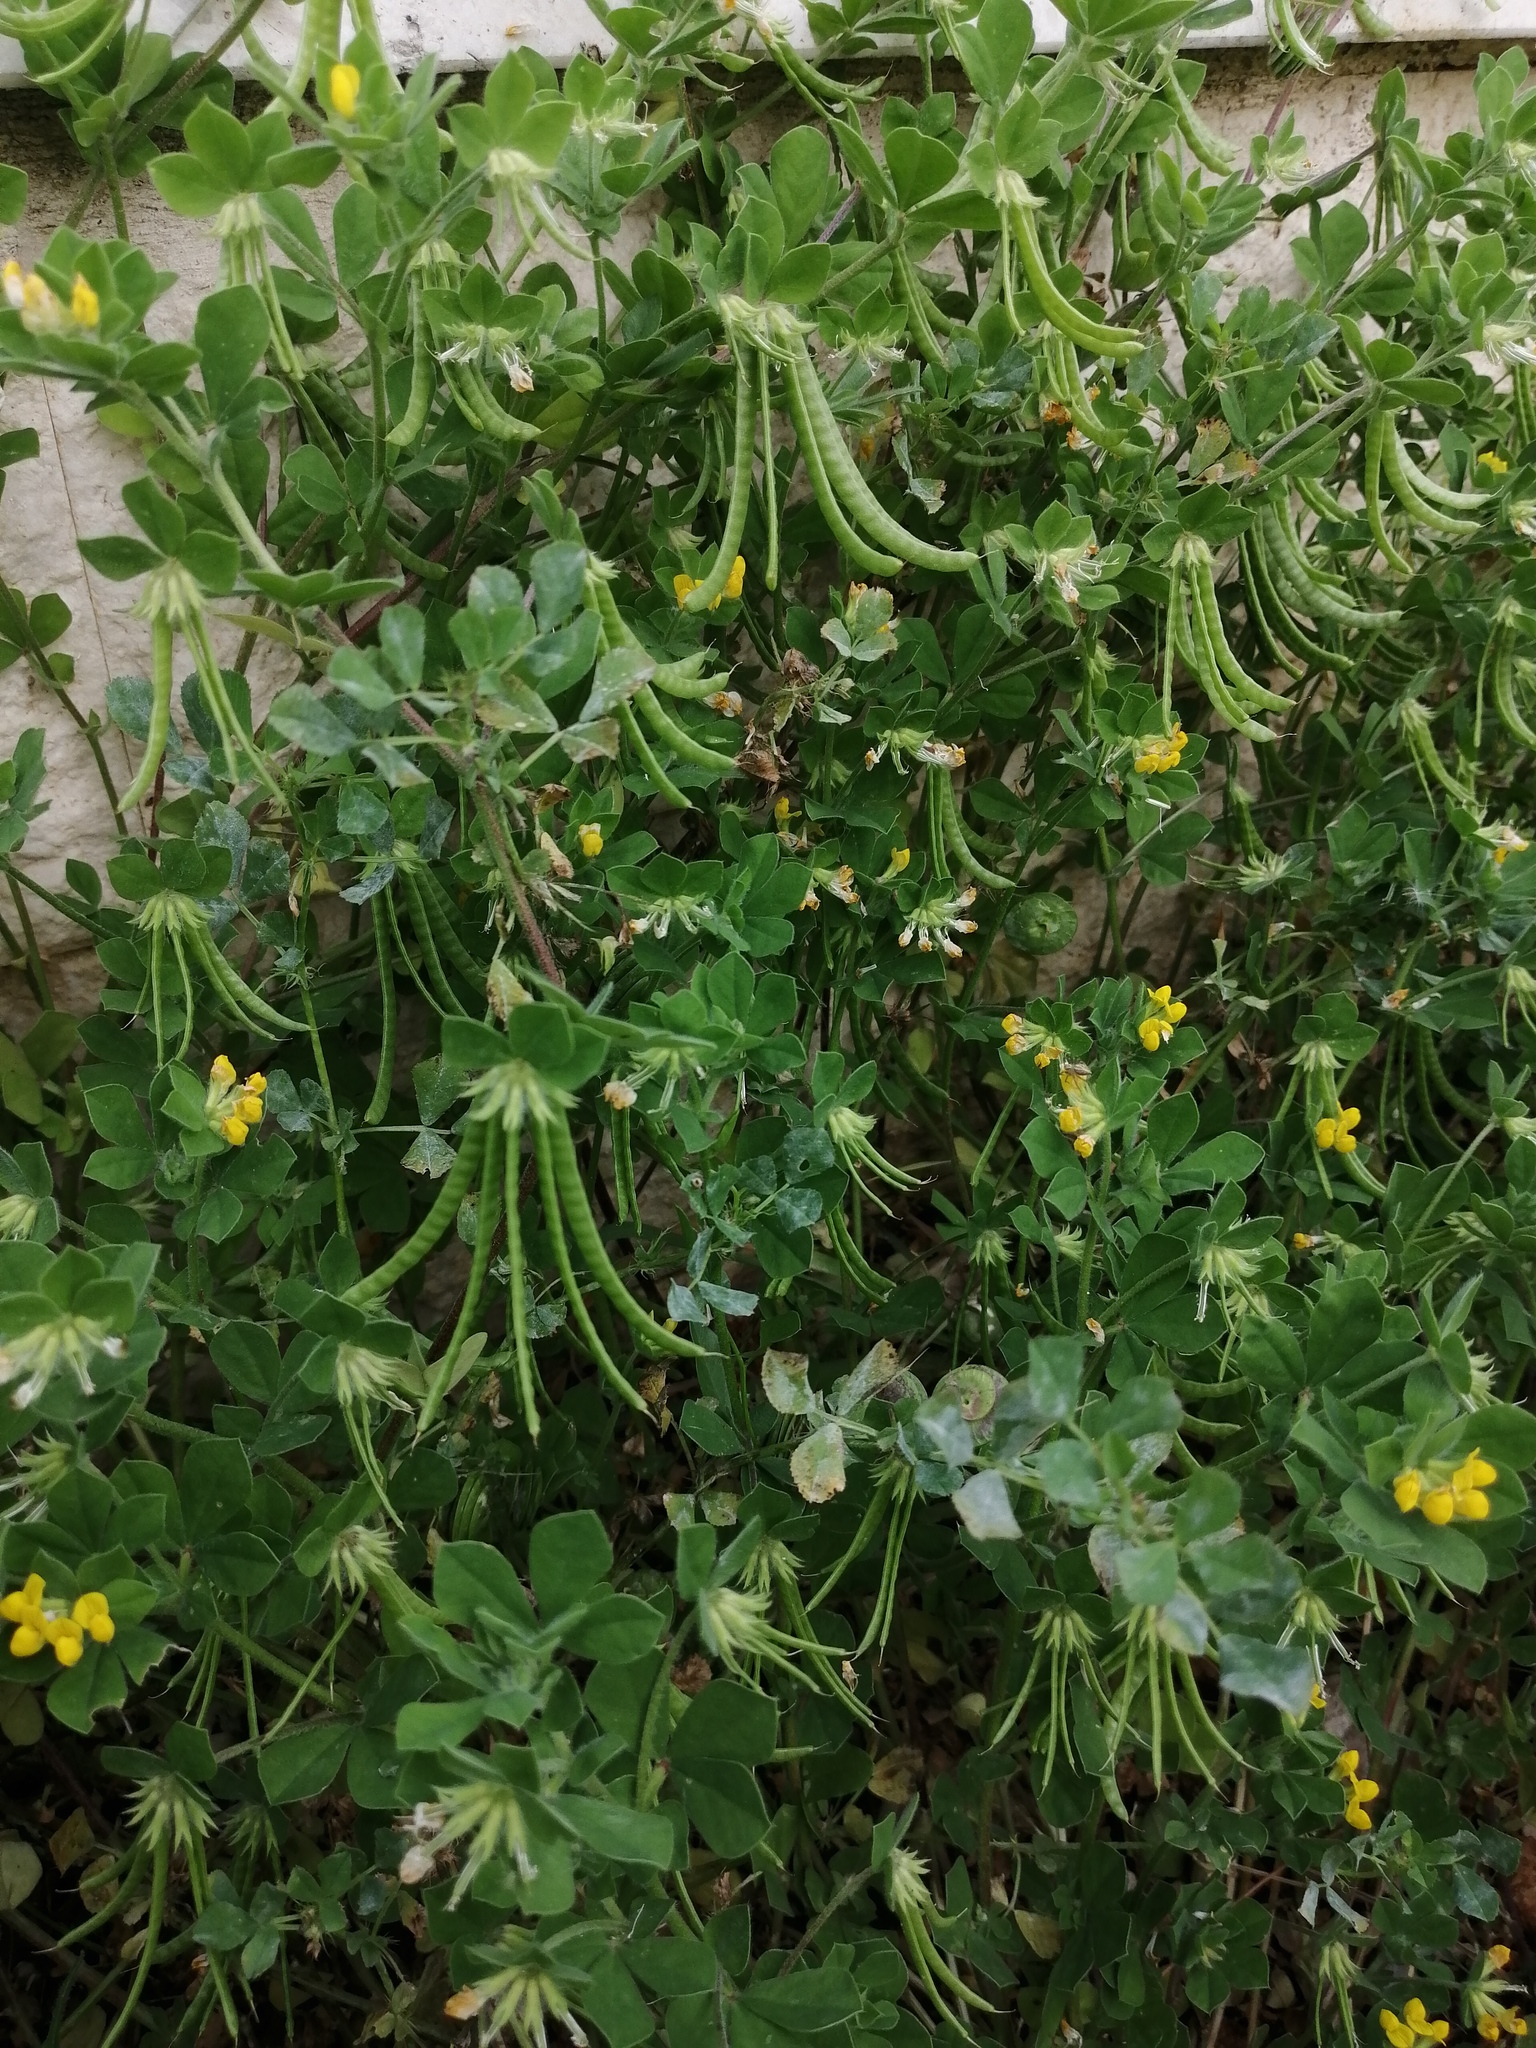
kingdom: Plantae
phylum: Tracheophyta
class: Magnoliopsida
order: Fabales
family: Fabaceae
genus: Lotus
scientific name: Lotus ornithopodioides
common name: Southern bird's-foot trefoil
